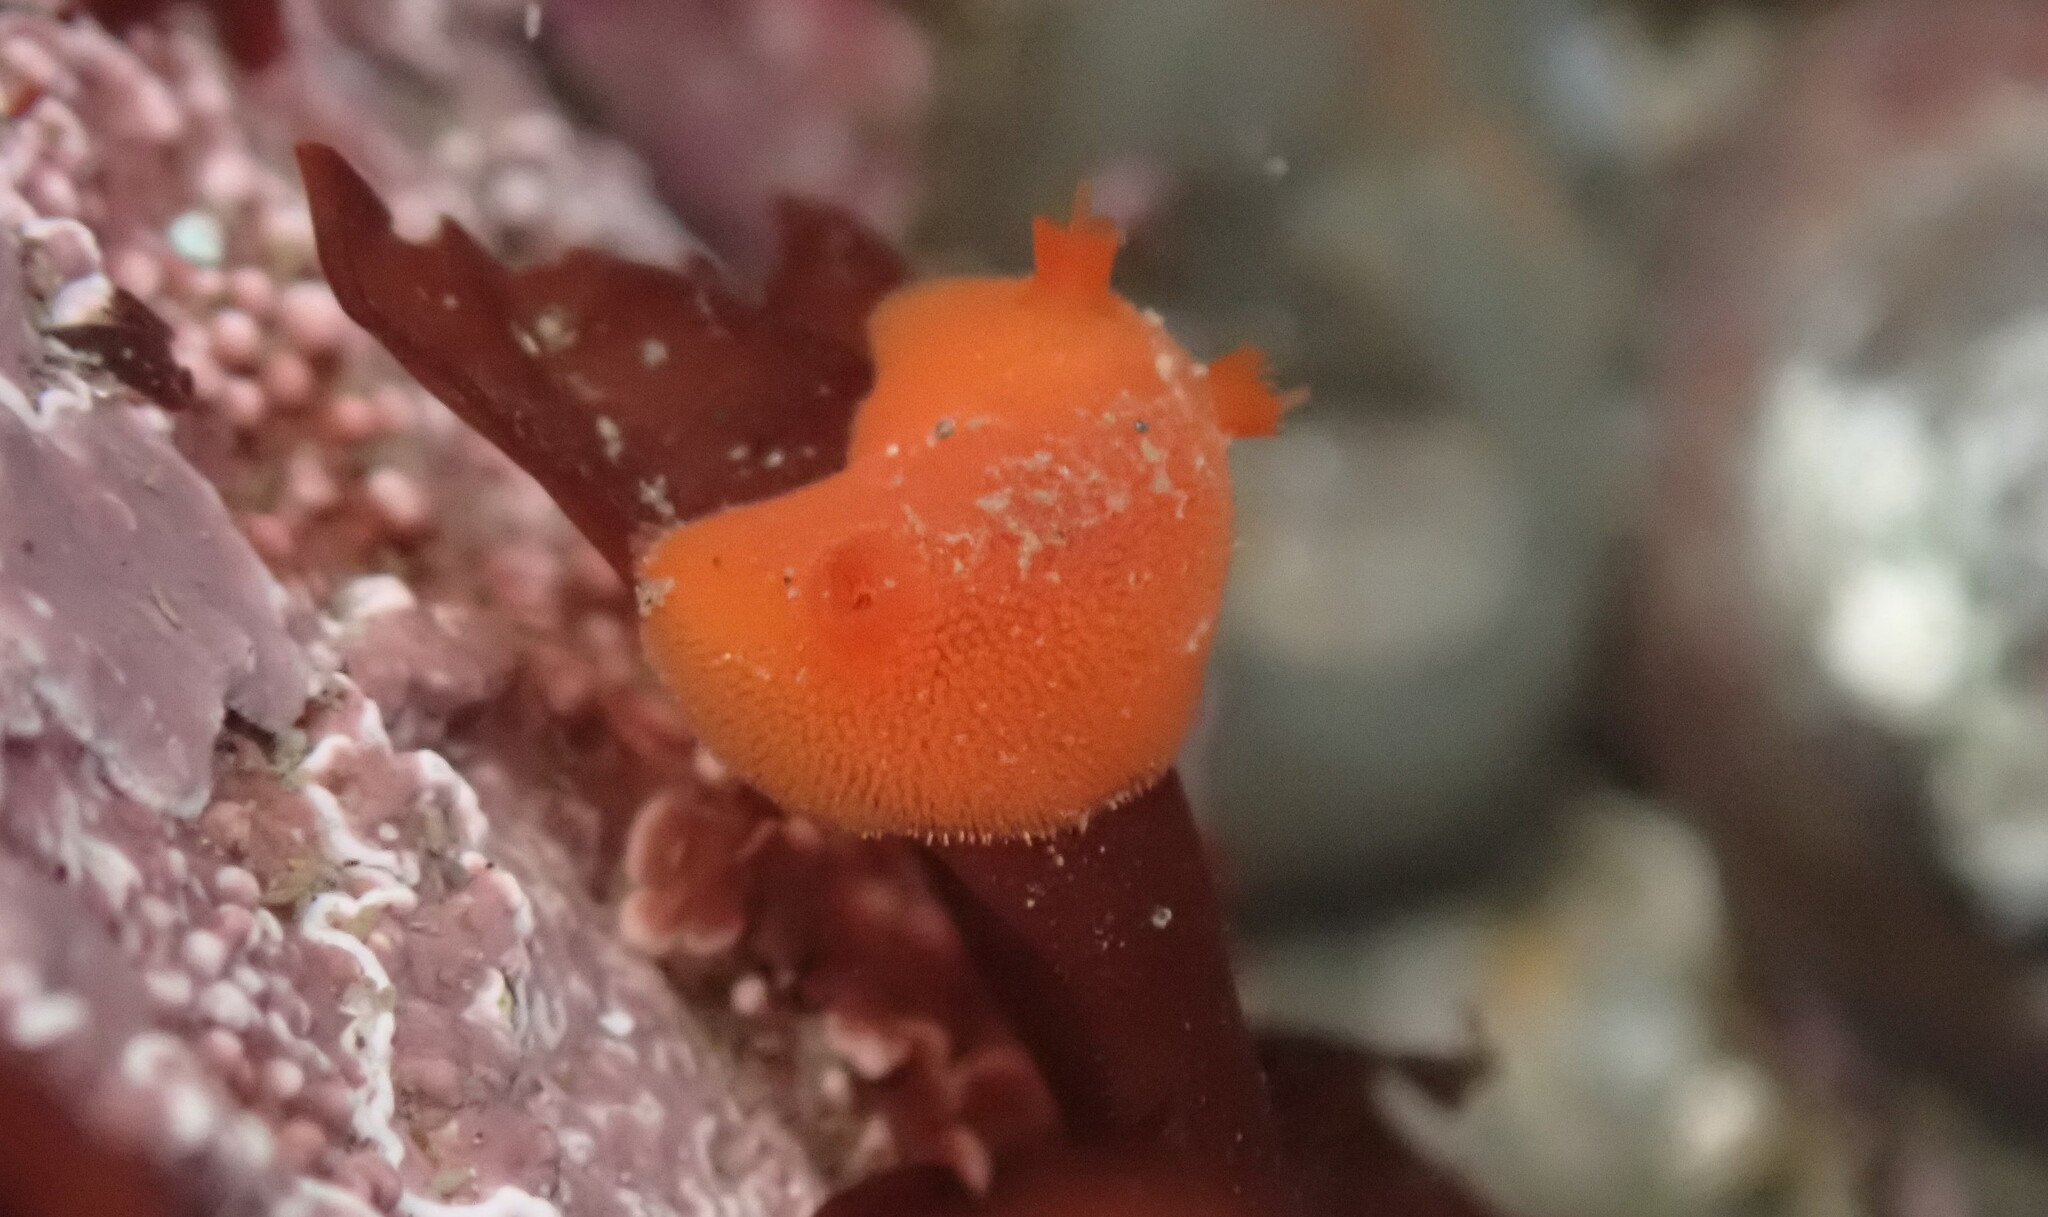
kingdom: Animalia
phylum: Mollusca
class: Gastropoda
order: Nudibranchia
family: Discodorididae
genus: Rostanga
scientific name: Rostanga pulchra
